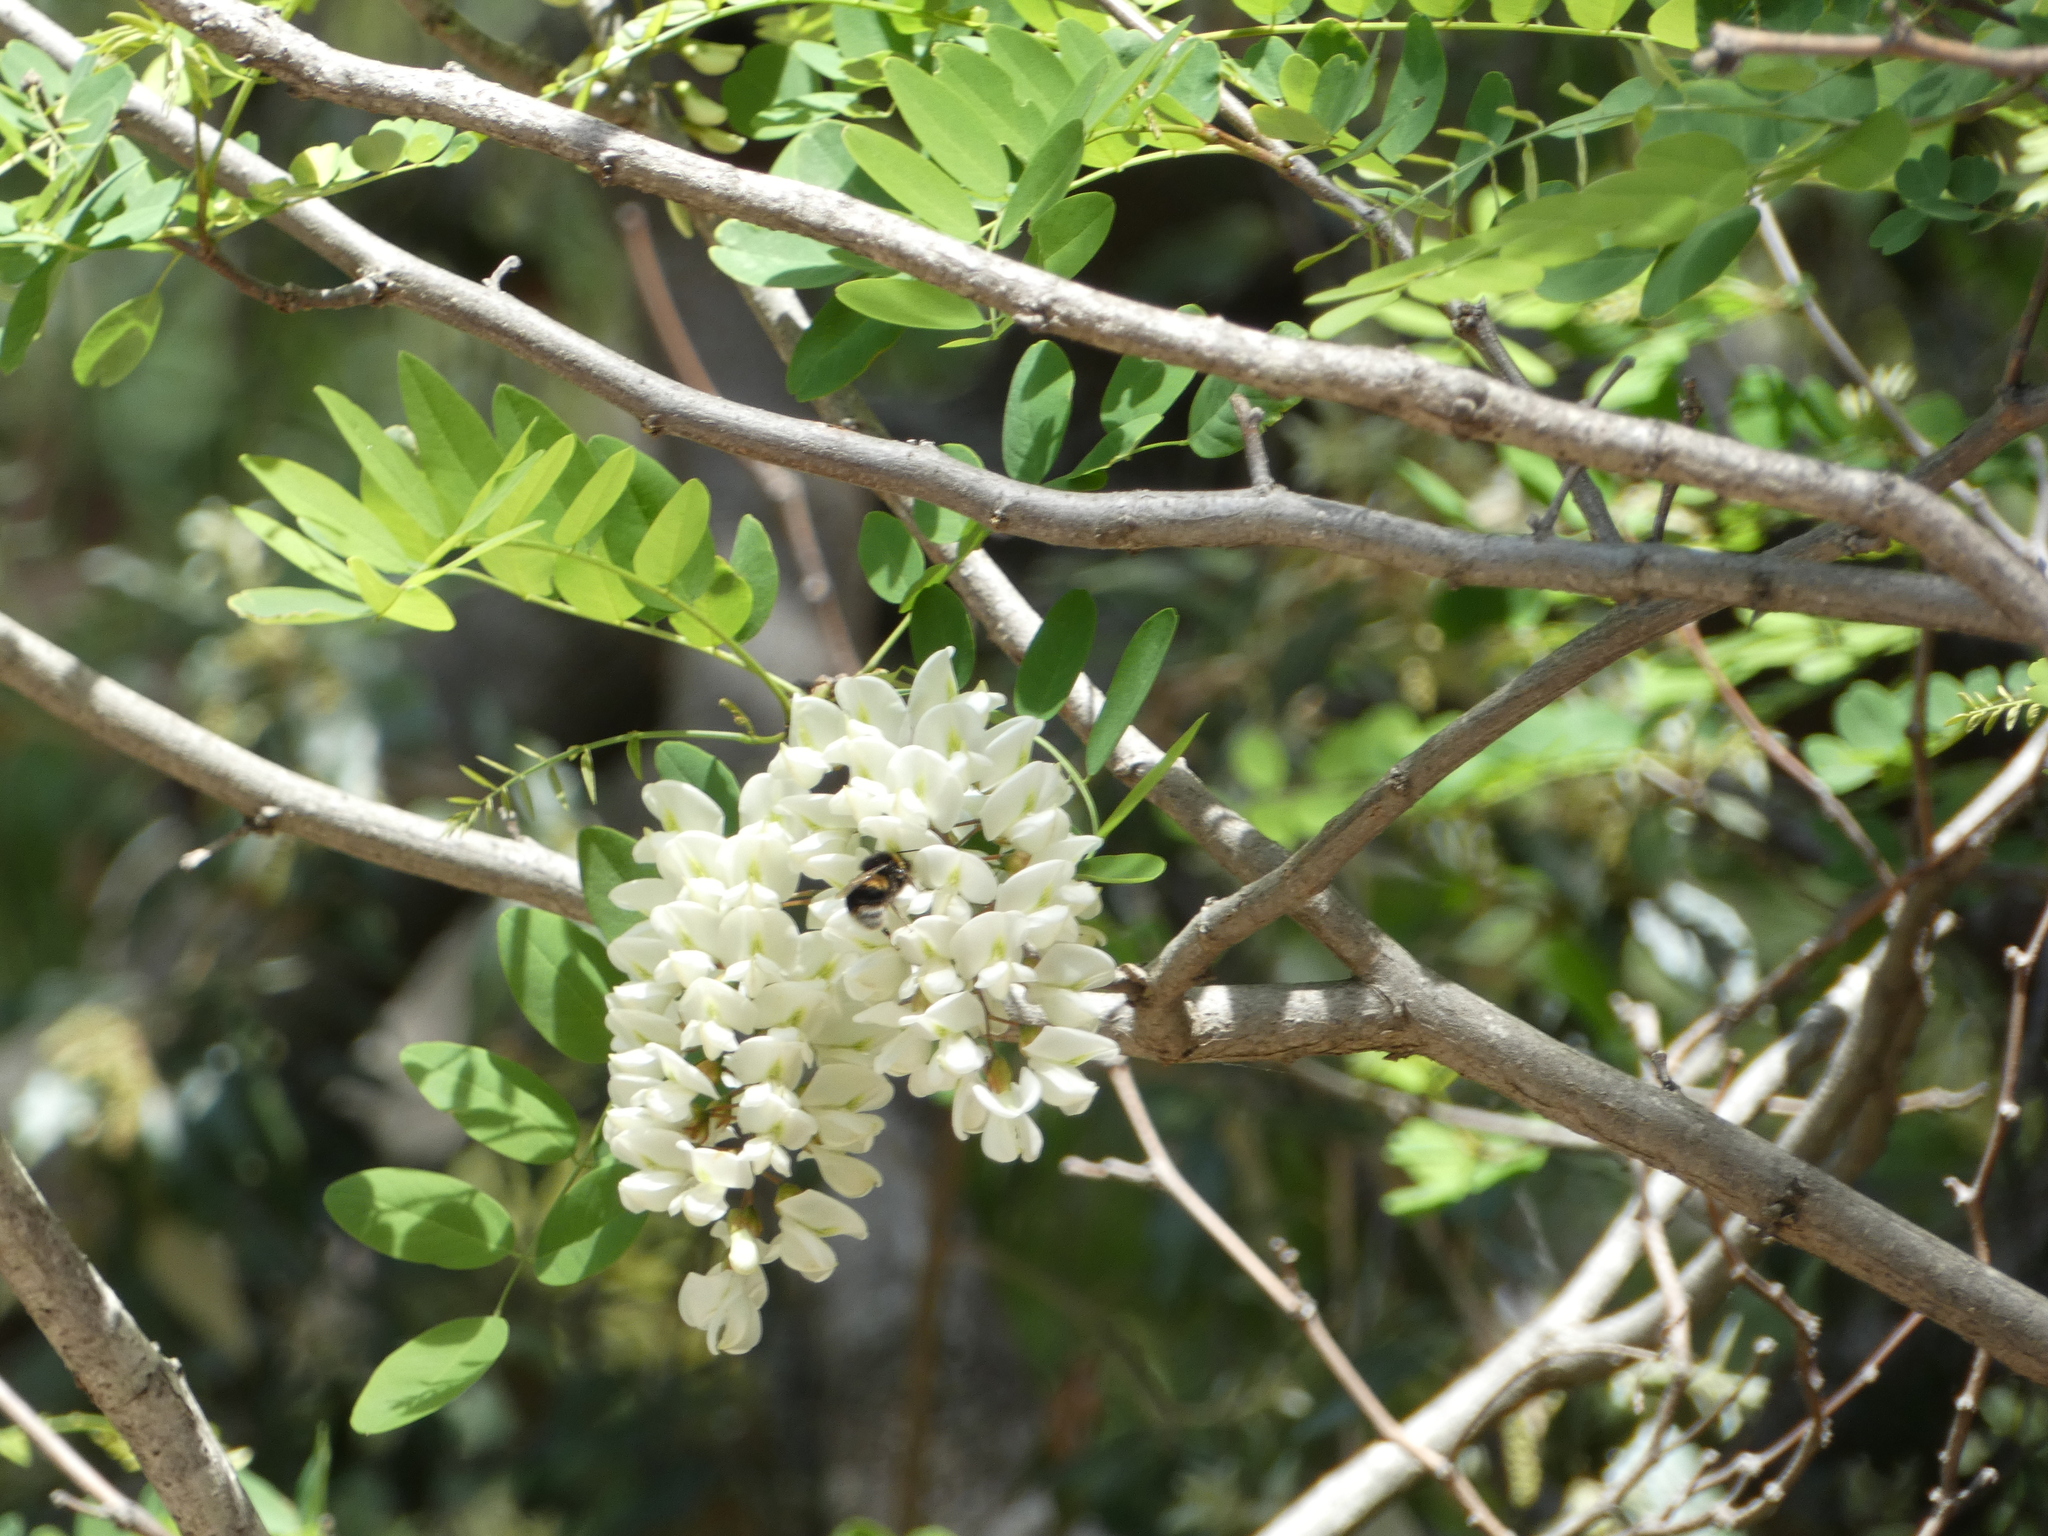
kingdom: Plantae
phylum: Tracheophyta
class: Magnoliopsida
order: Fabales
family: Fabaceae
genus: Robinia
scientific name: Robinia pseudoacacia
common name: Black locust
